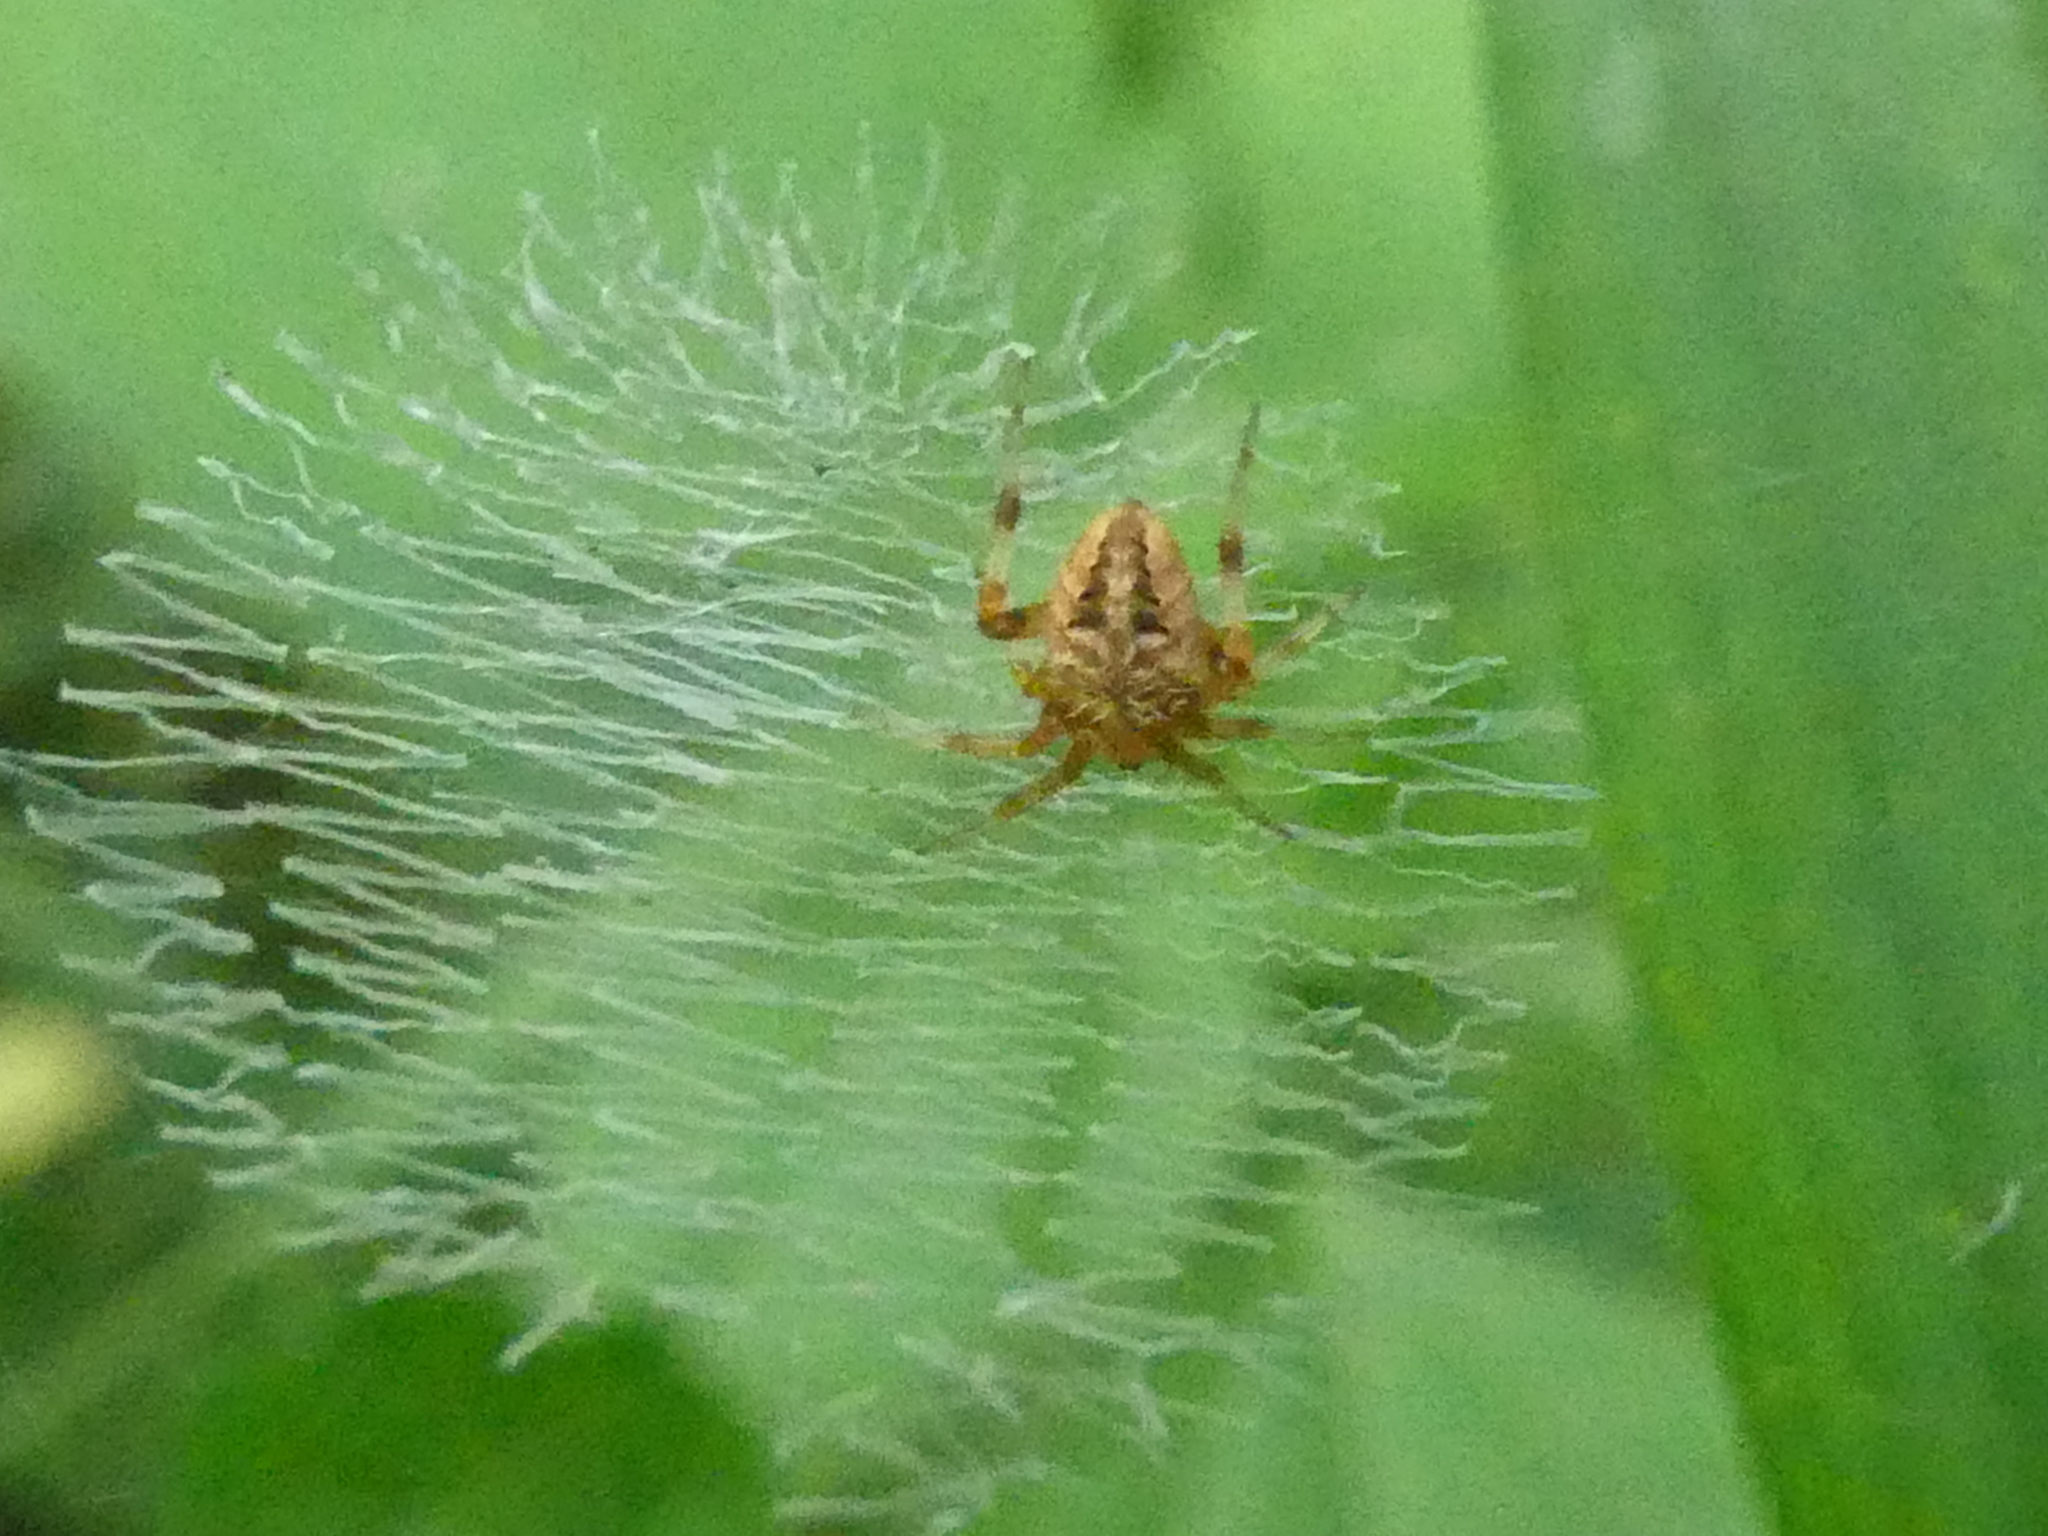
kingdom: Animalia
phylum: Arthropoda
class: Arachnida
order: Araneae
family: Araneidae
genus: Neoscona
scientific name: Neoscona arabesca
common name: Orb weavers
